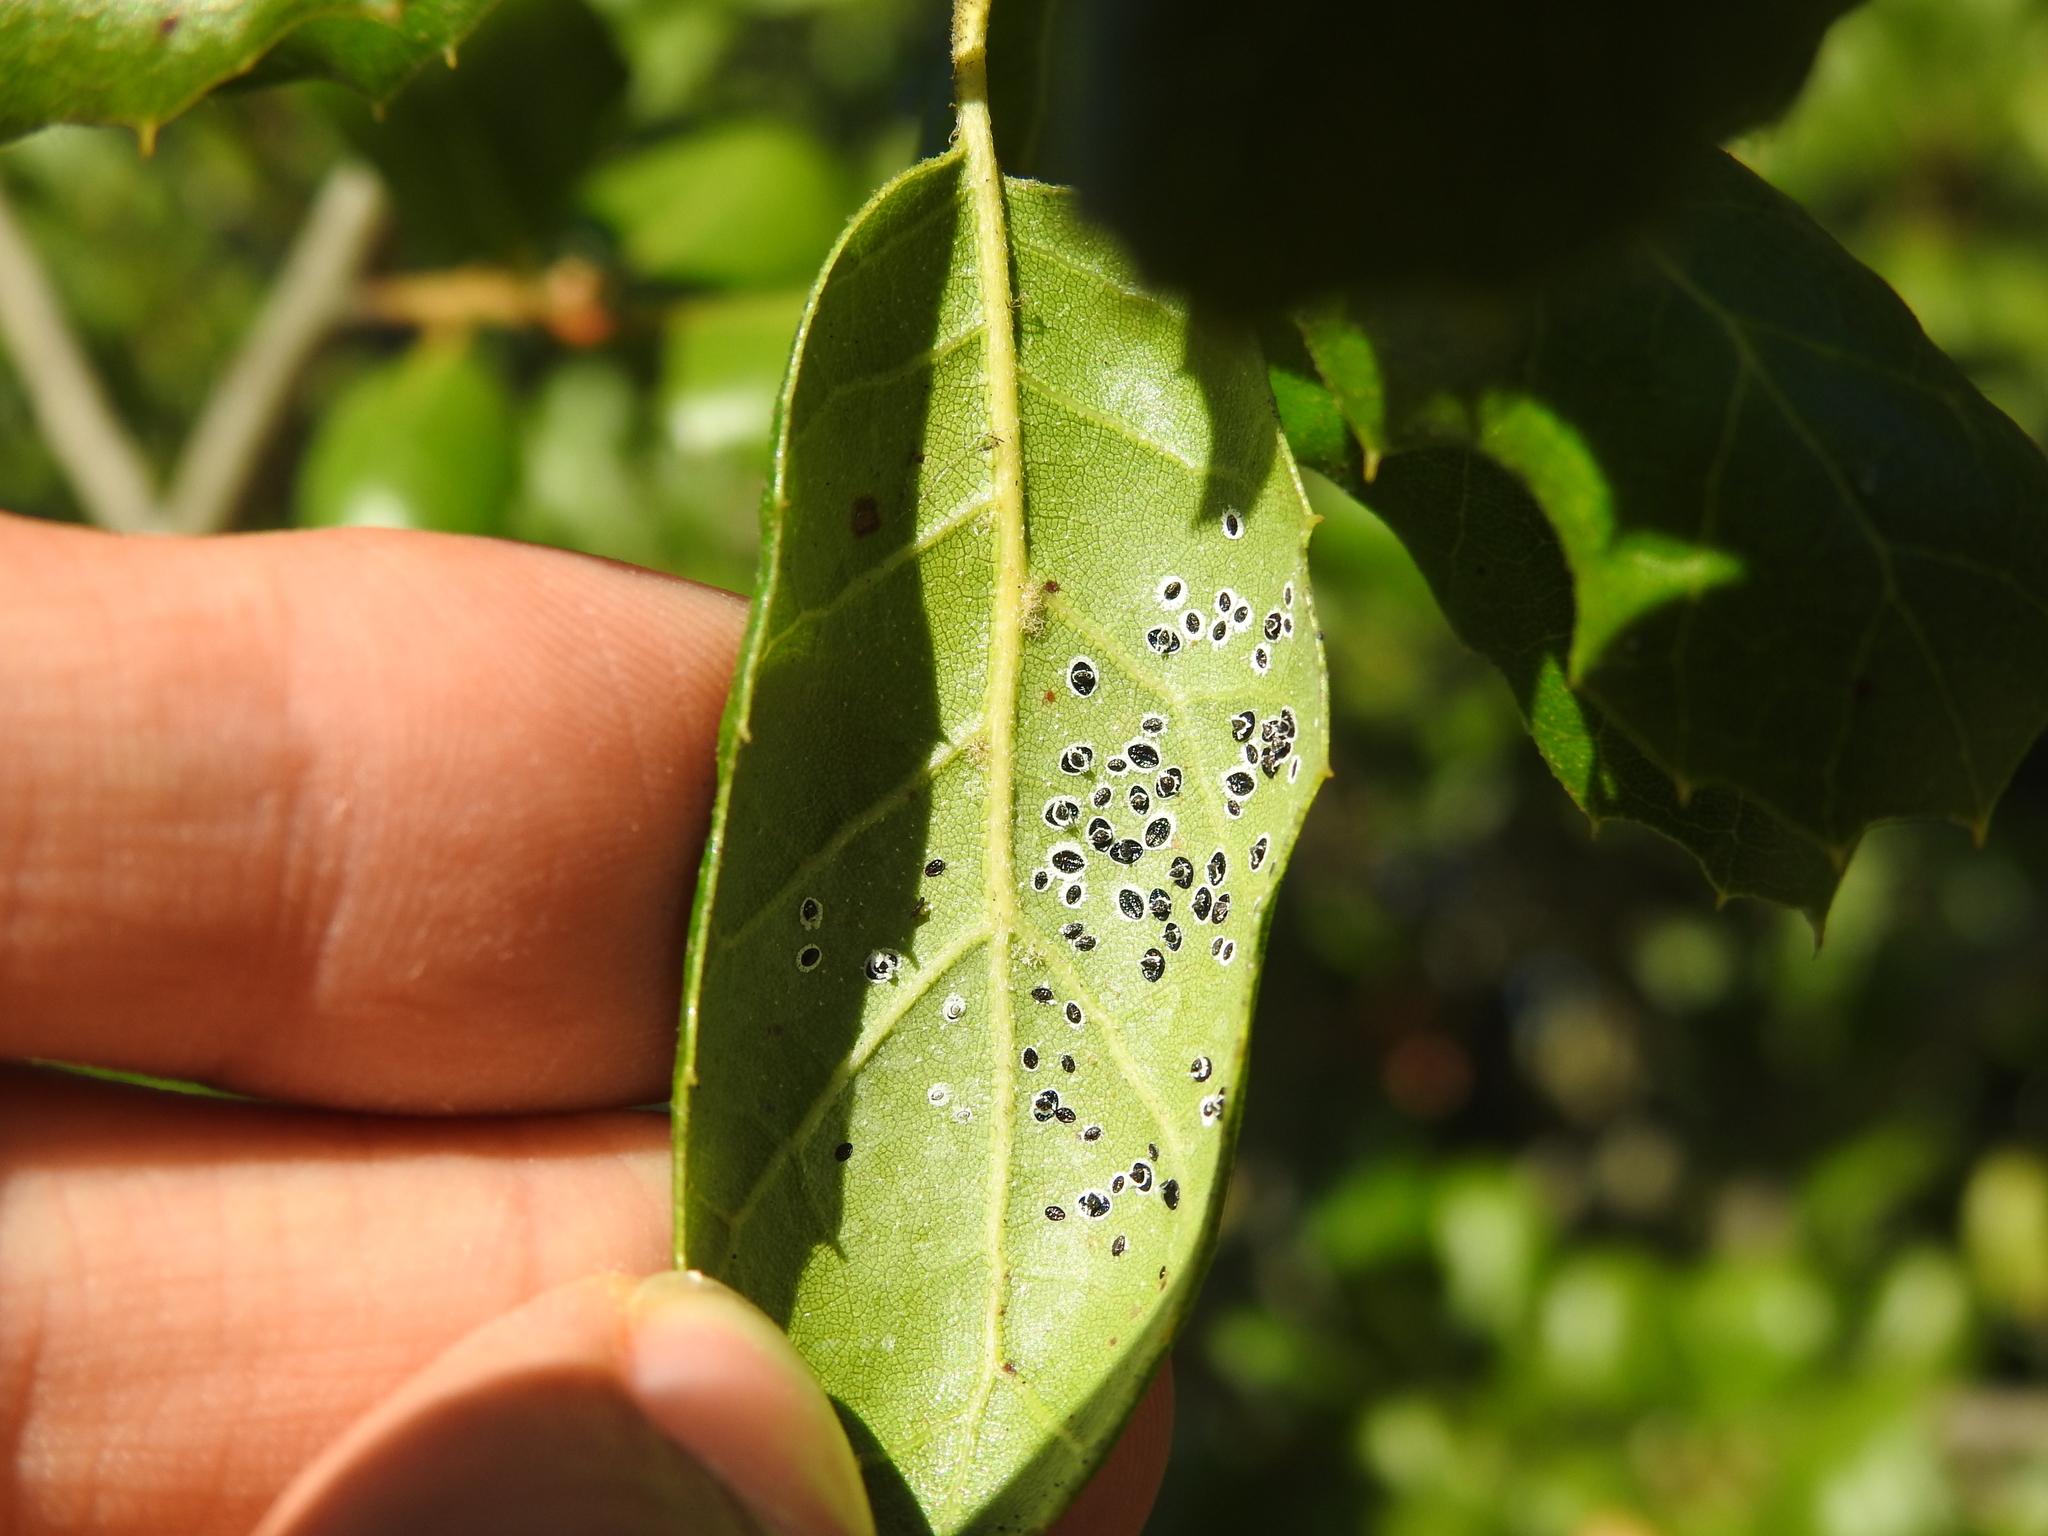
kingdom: Animalia
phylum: Arthropoda
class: Insecta
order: Hemiptera
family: Aleyrodidae
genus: Tetraleurodes
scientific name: Tetraleurodes perileuca
